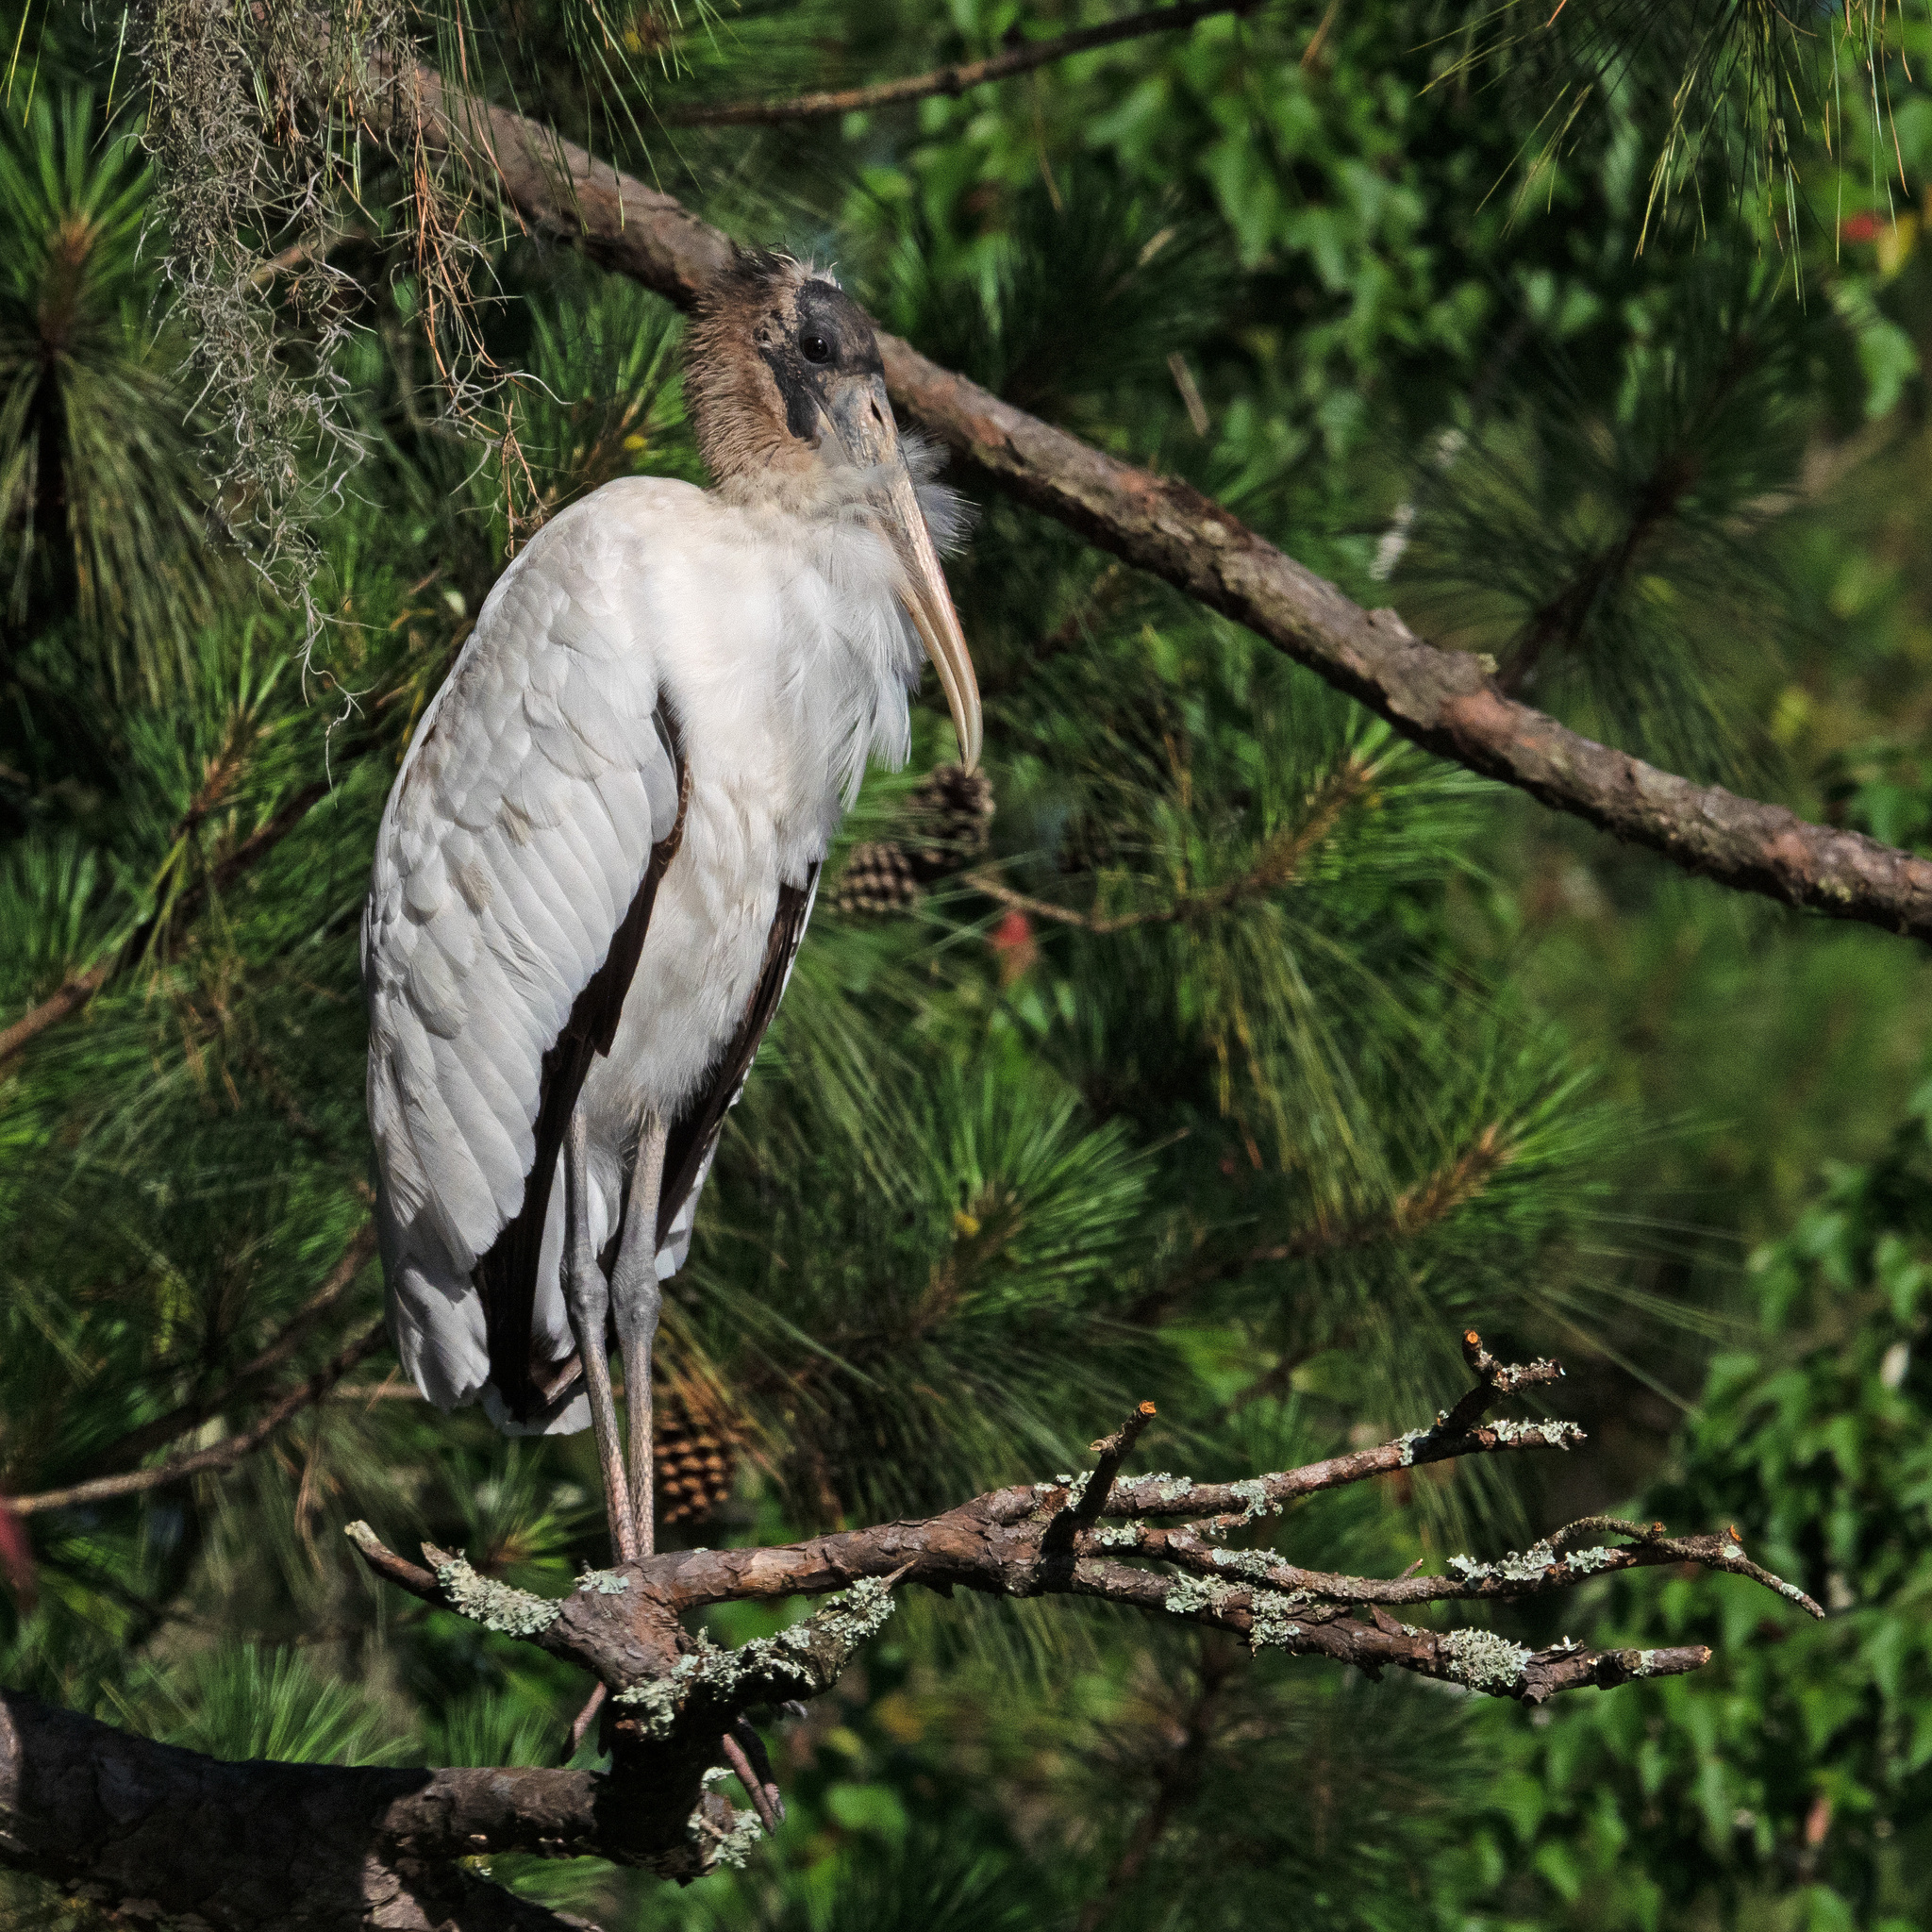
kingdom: Animalia
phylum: Chordata
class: Aves
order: Ciconiiformes
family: Ciconiidae
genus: Mycteria
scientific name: Mycteria americana
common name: Wood stork
